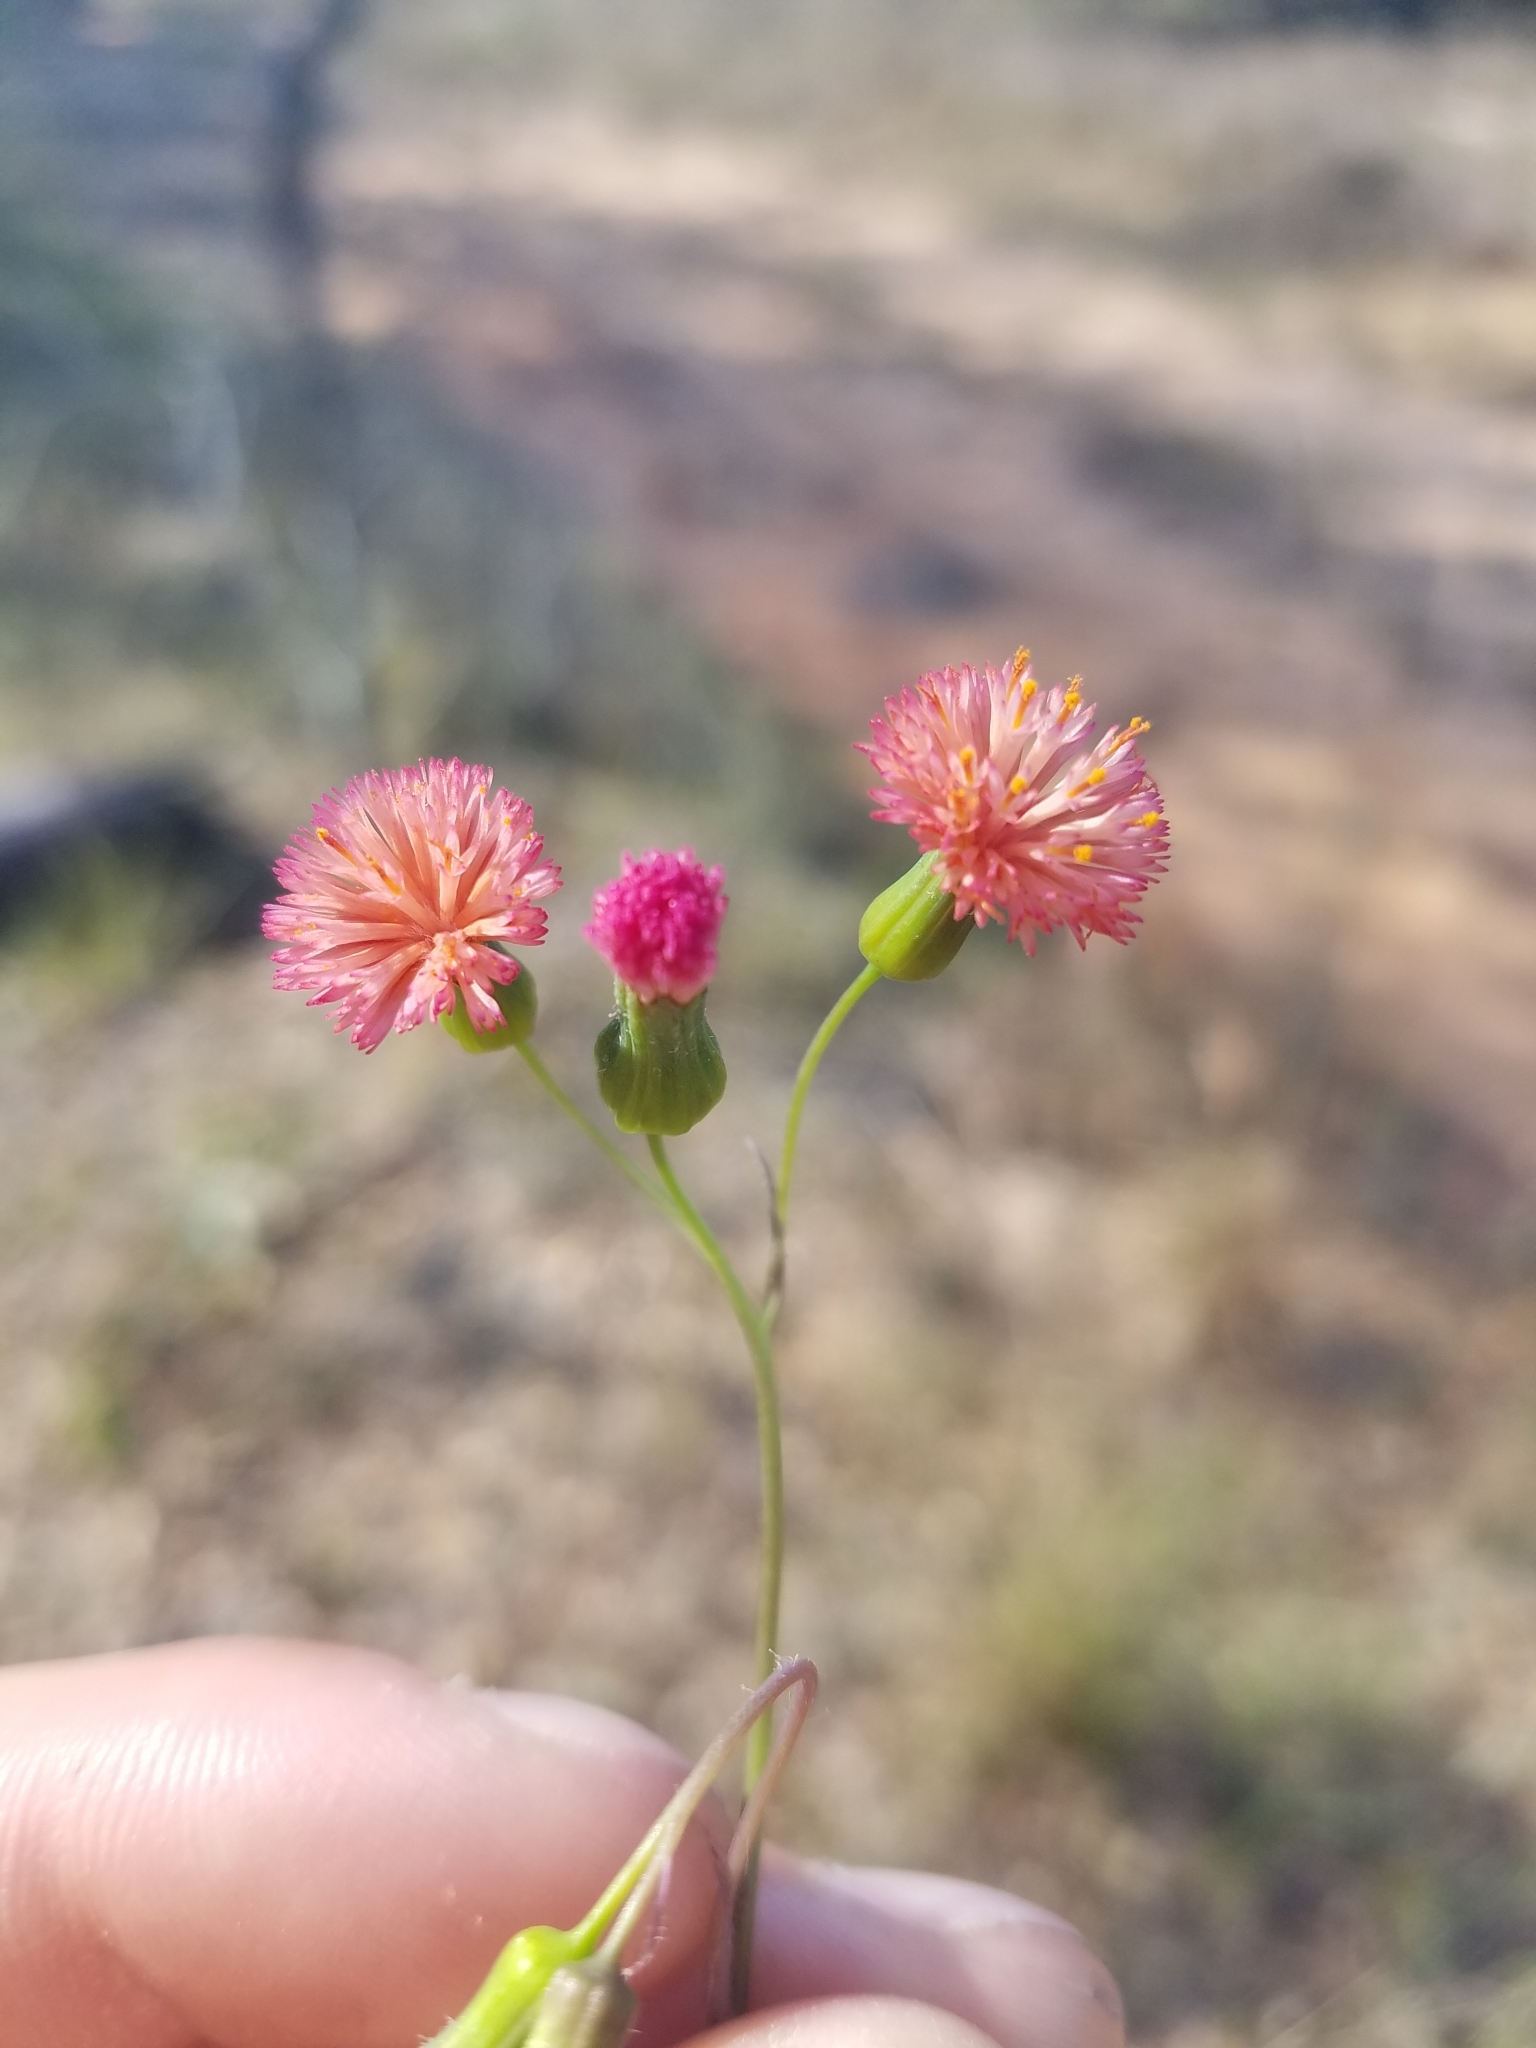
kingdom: Plantae
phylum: Tracheophyta
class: Magnoliopsida
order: Asterales
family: Asteraceae
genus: Emilia
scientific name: Emilia fosbergii
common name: Florida tasselflower
